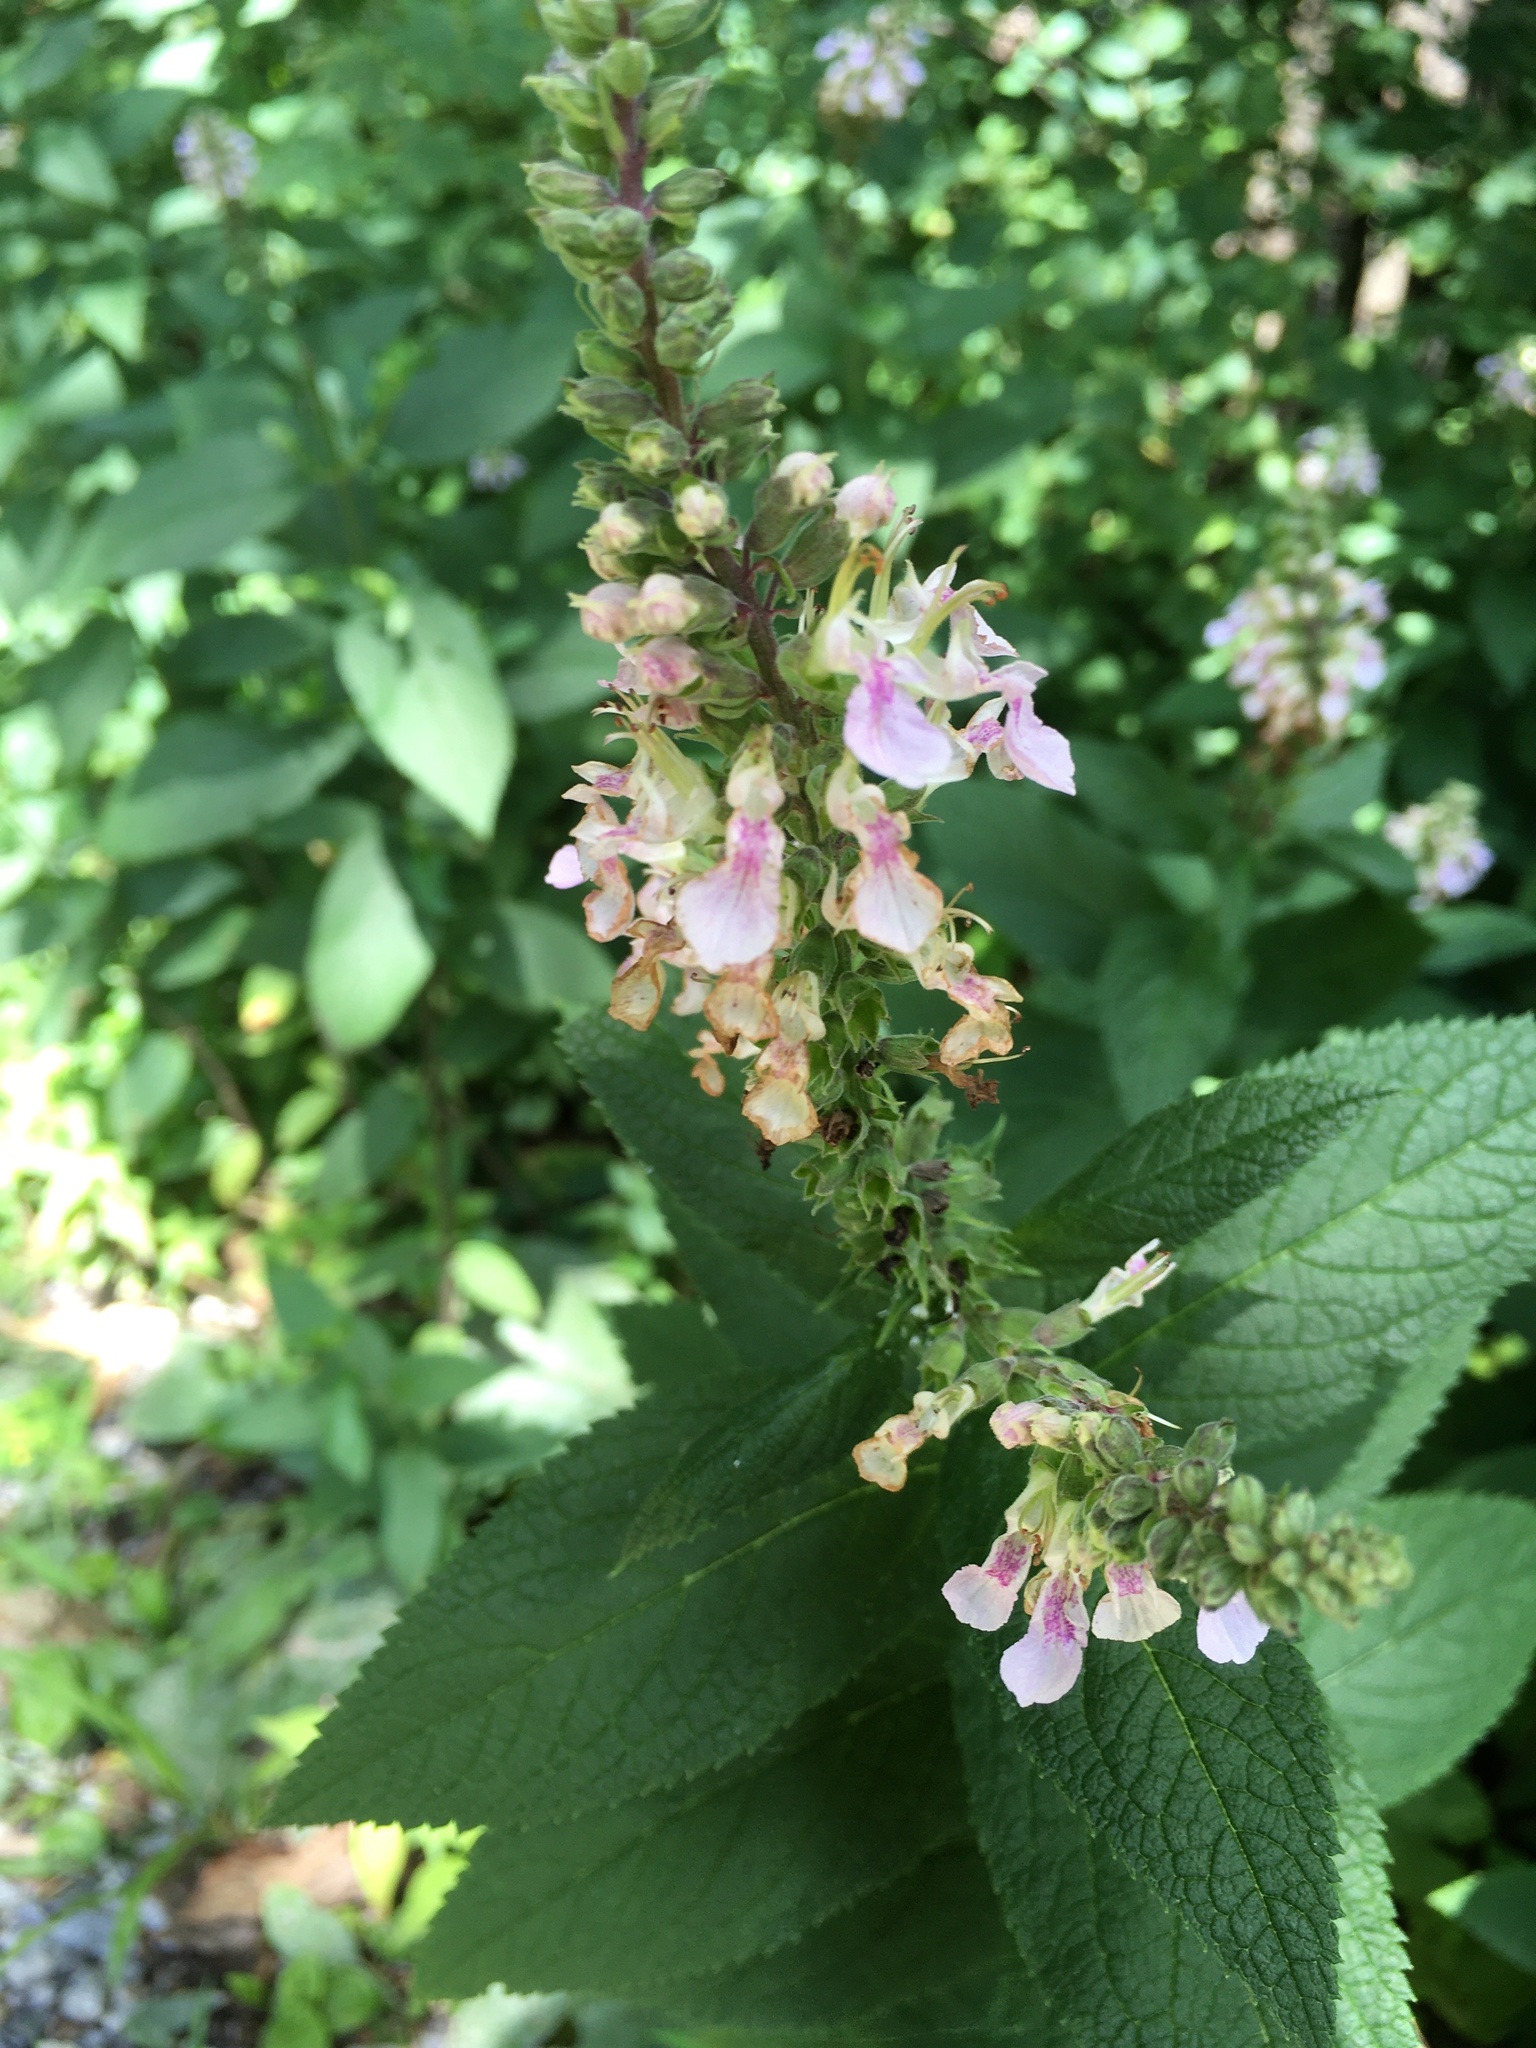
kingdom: Plantae
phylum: Tracheophyta
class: Magnoliopsida
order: Lamiales
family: Lamiaceae
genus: Teucrium
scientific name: Teucrium canadense
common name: American germander
